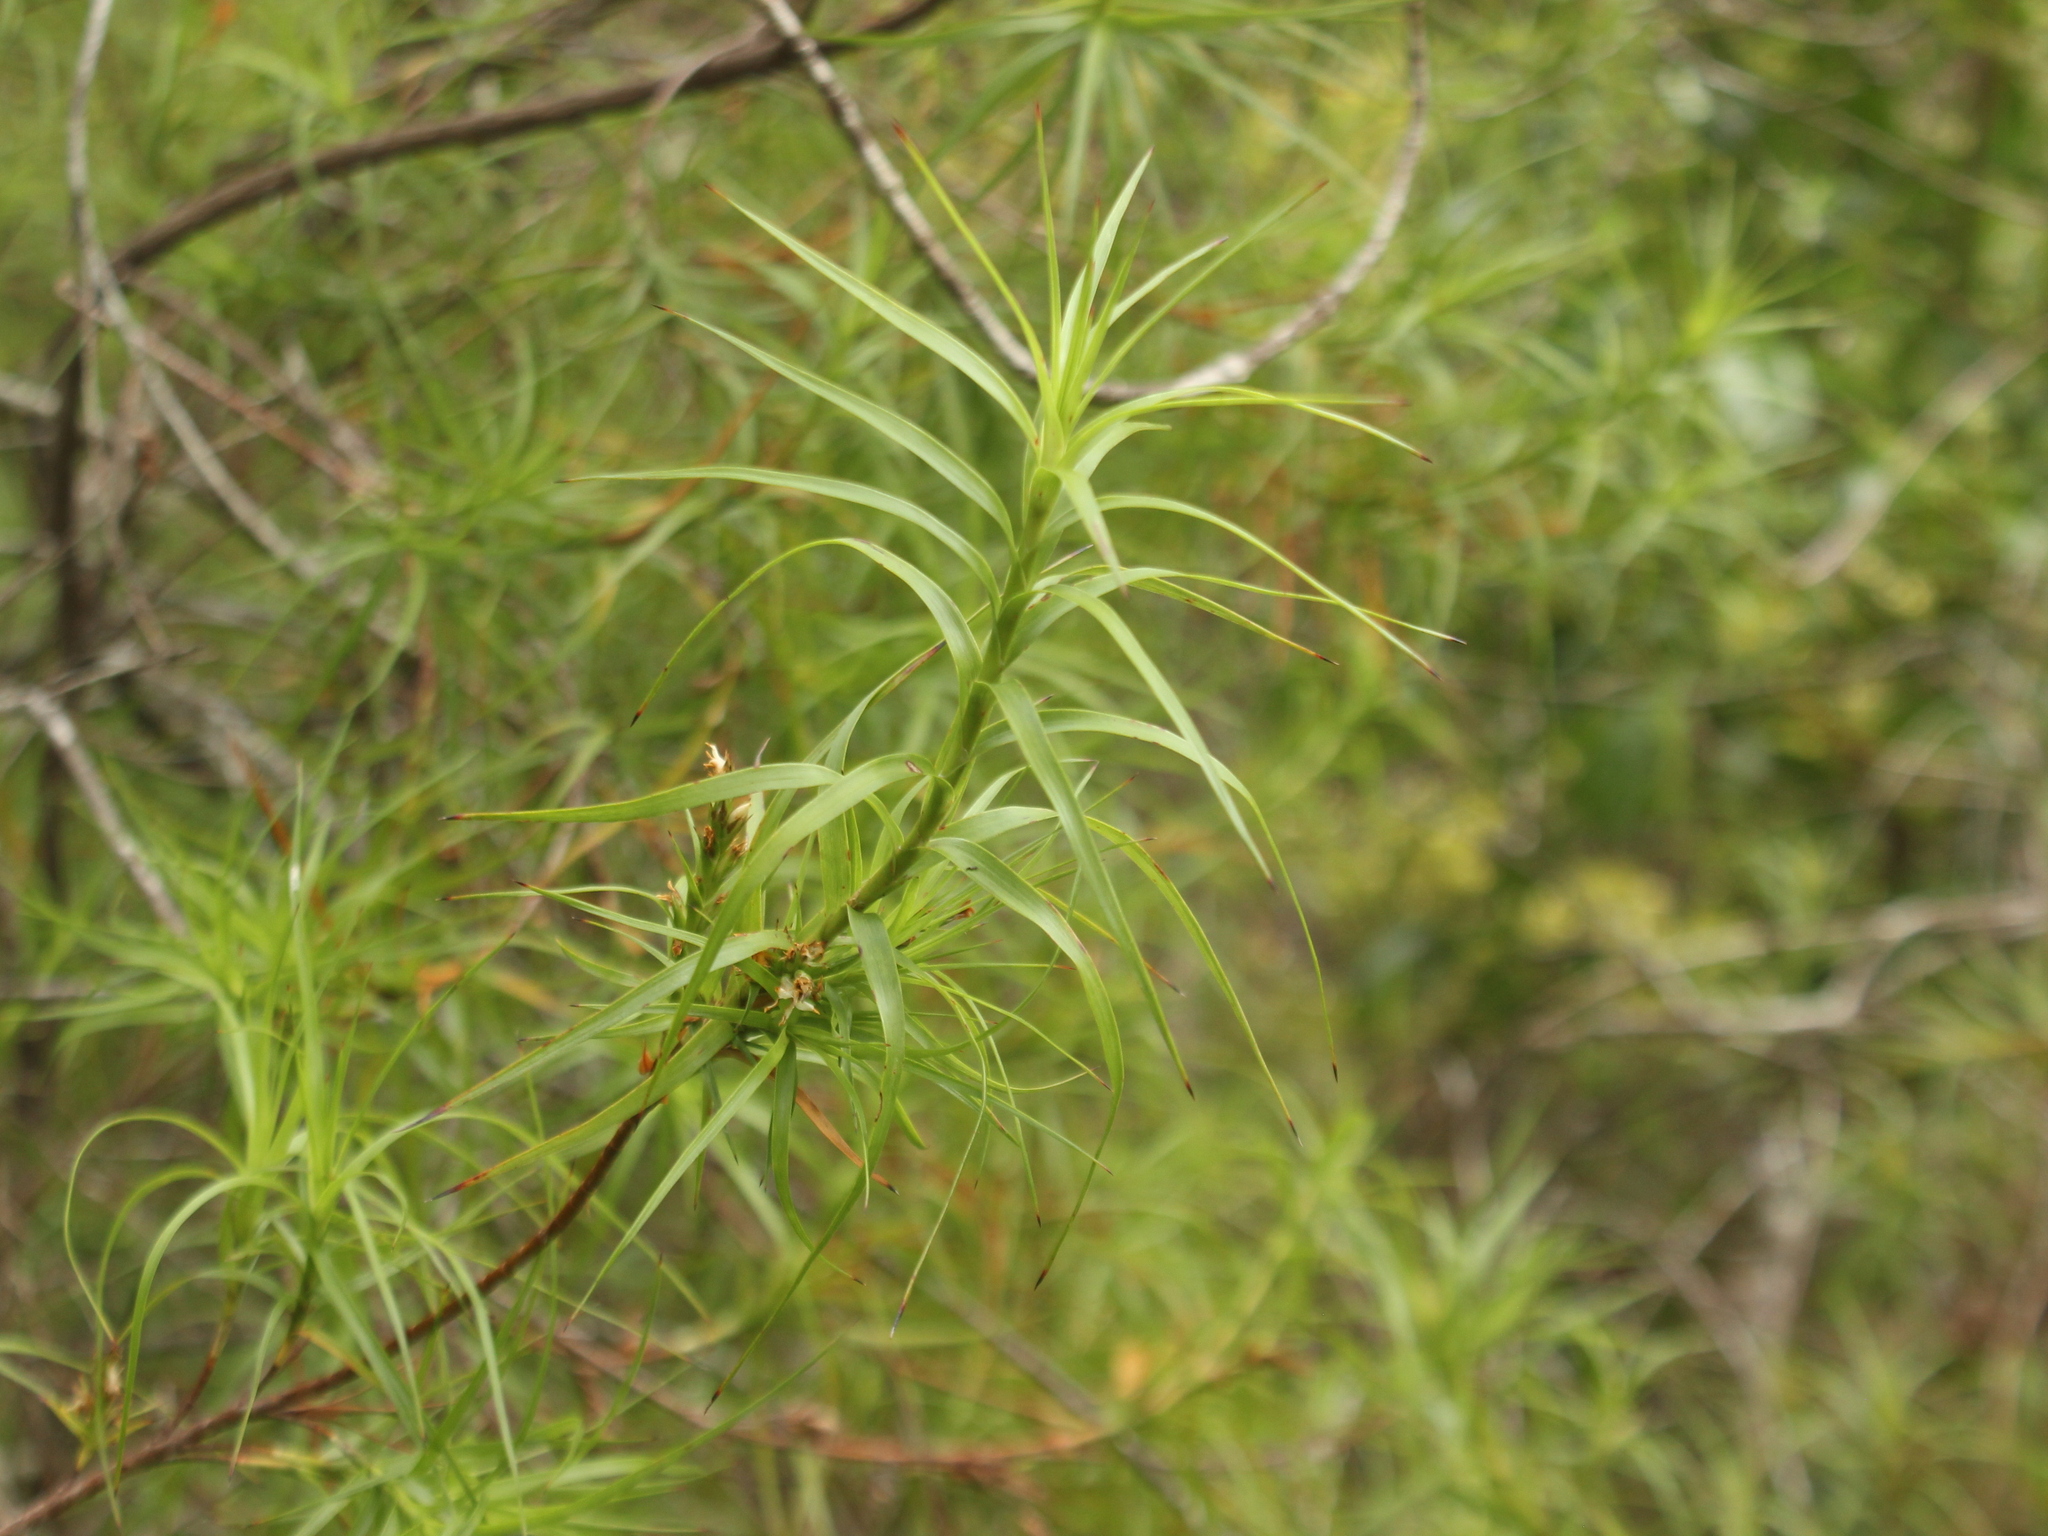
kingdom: Plantae
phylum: Tracheophyta
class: Magnoliopsida
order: Ericales
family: Ericaceae
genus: Dracophyllum
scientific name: Dracophyllum sinclairii
